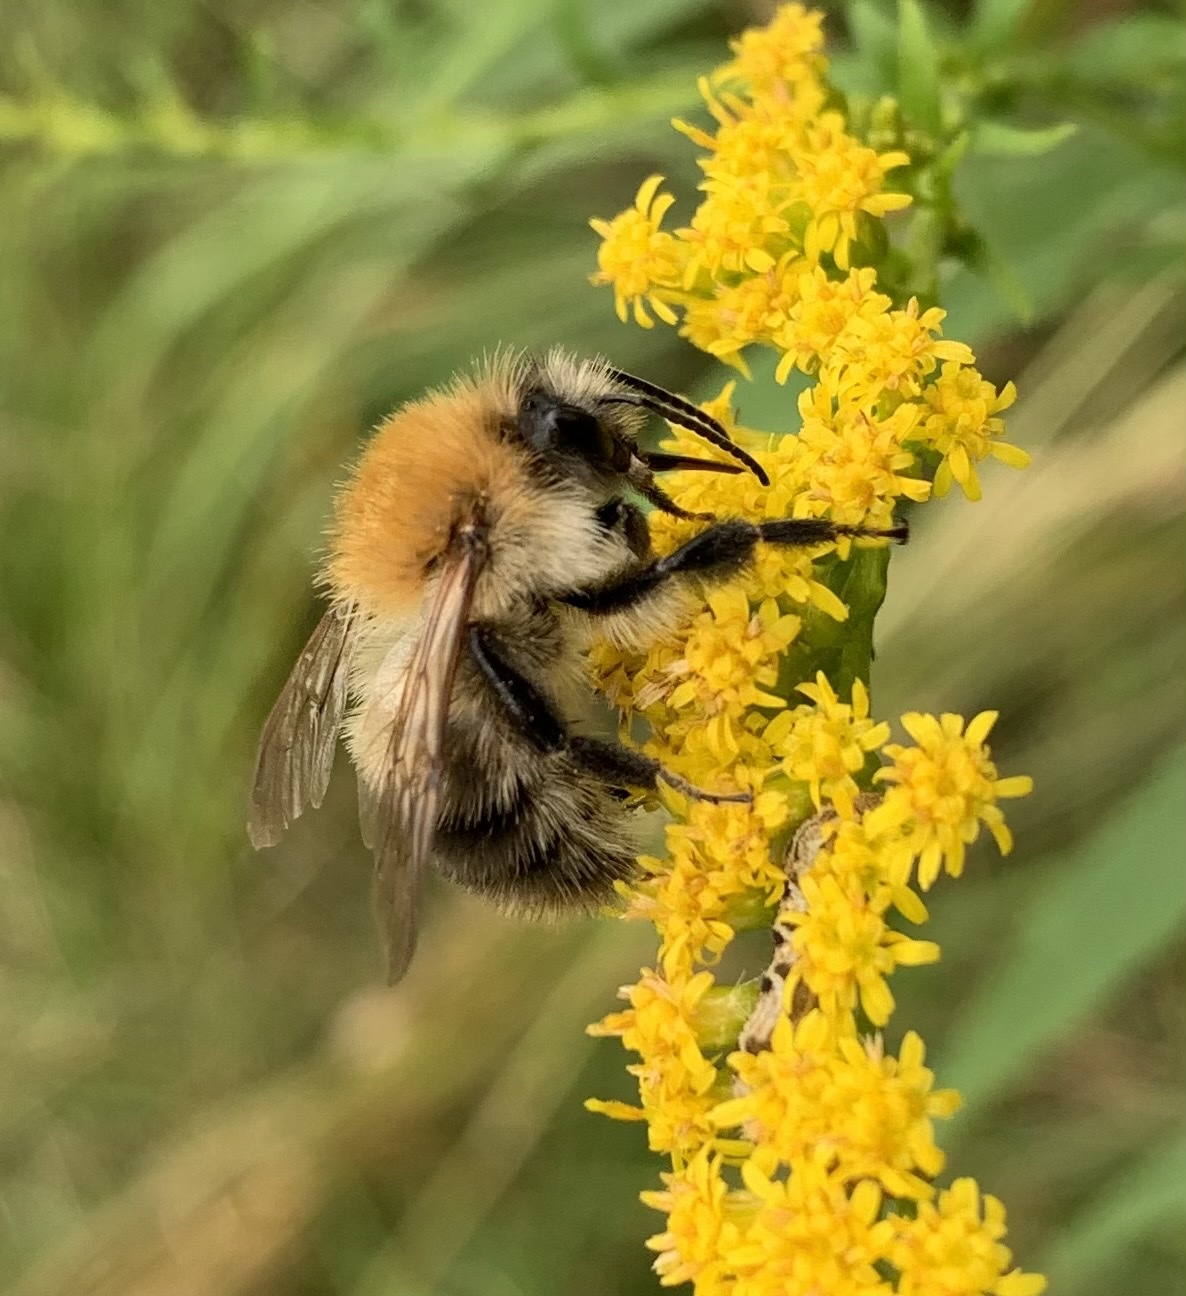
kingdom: Animalia
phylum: Arthropoda
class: Insecta
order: Hymenoptera
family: Apidae
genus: Bombus
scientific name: Bombus pascuorum
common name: Common carder bee
